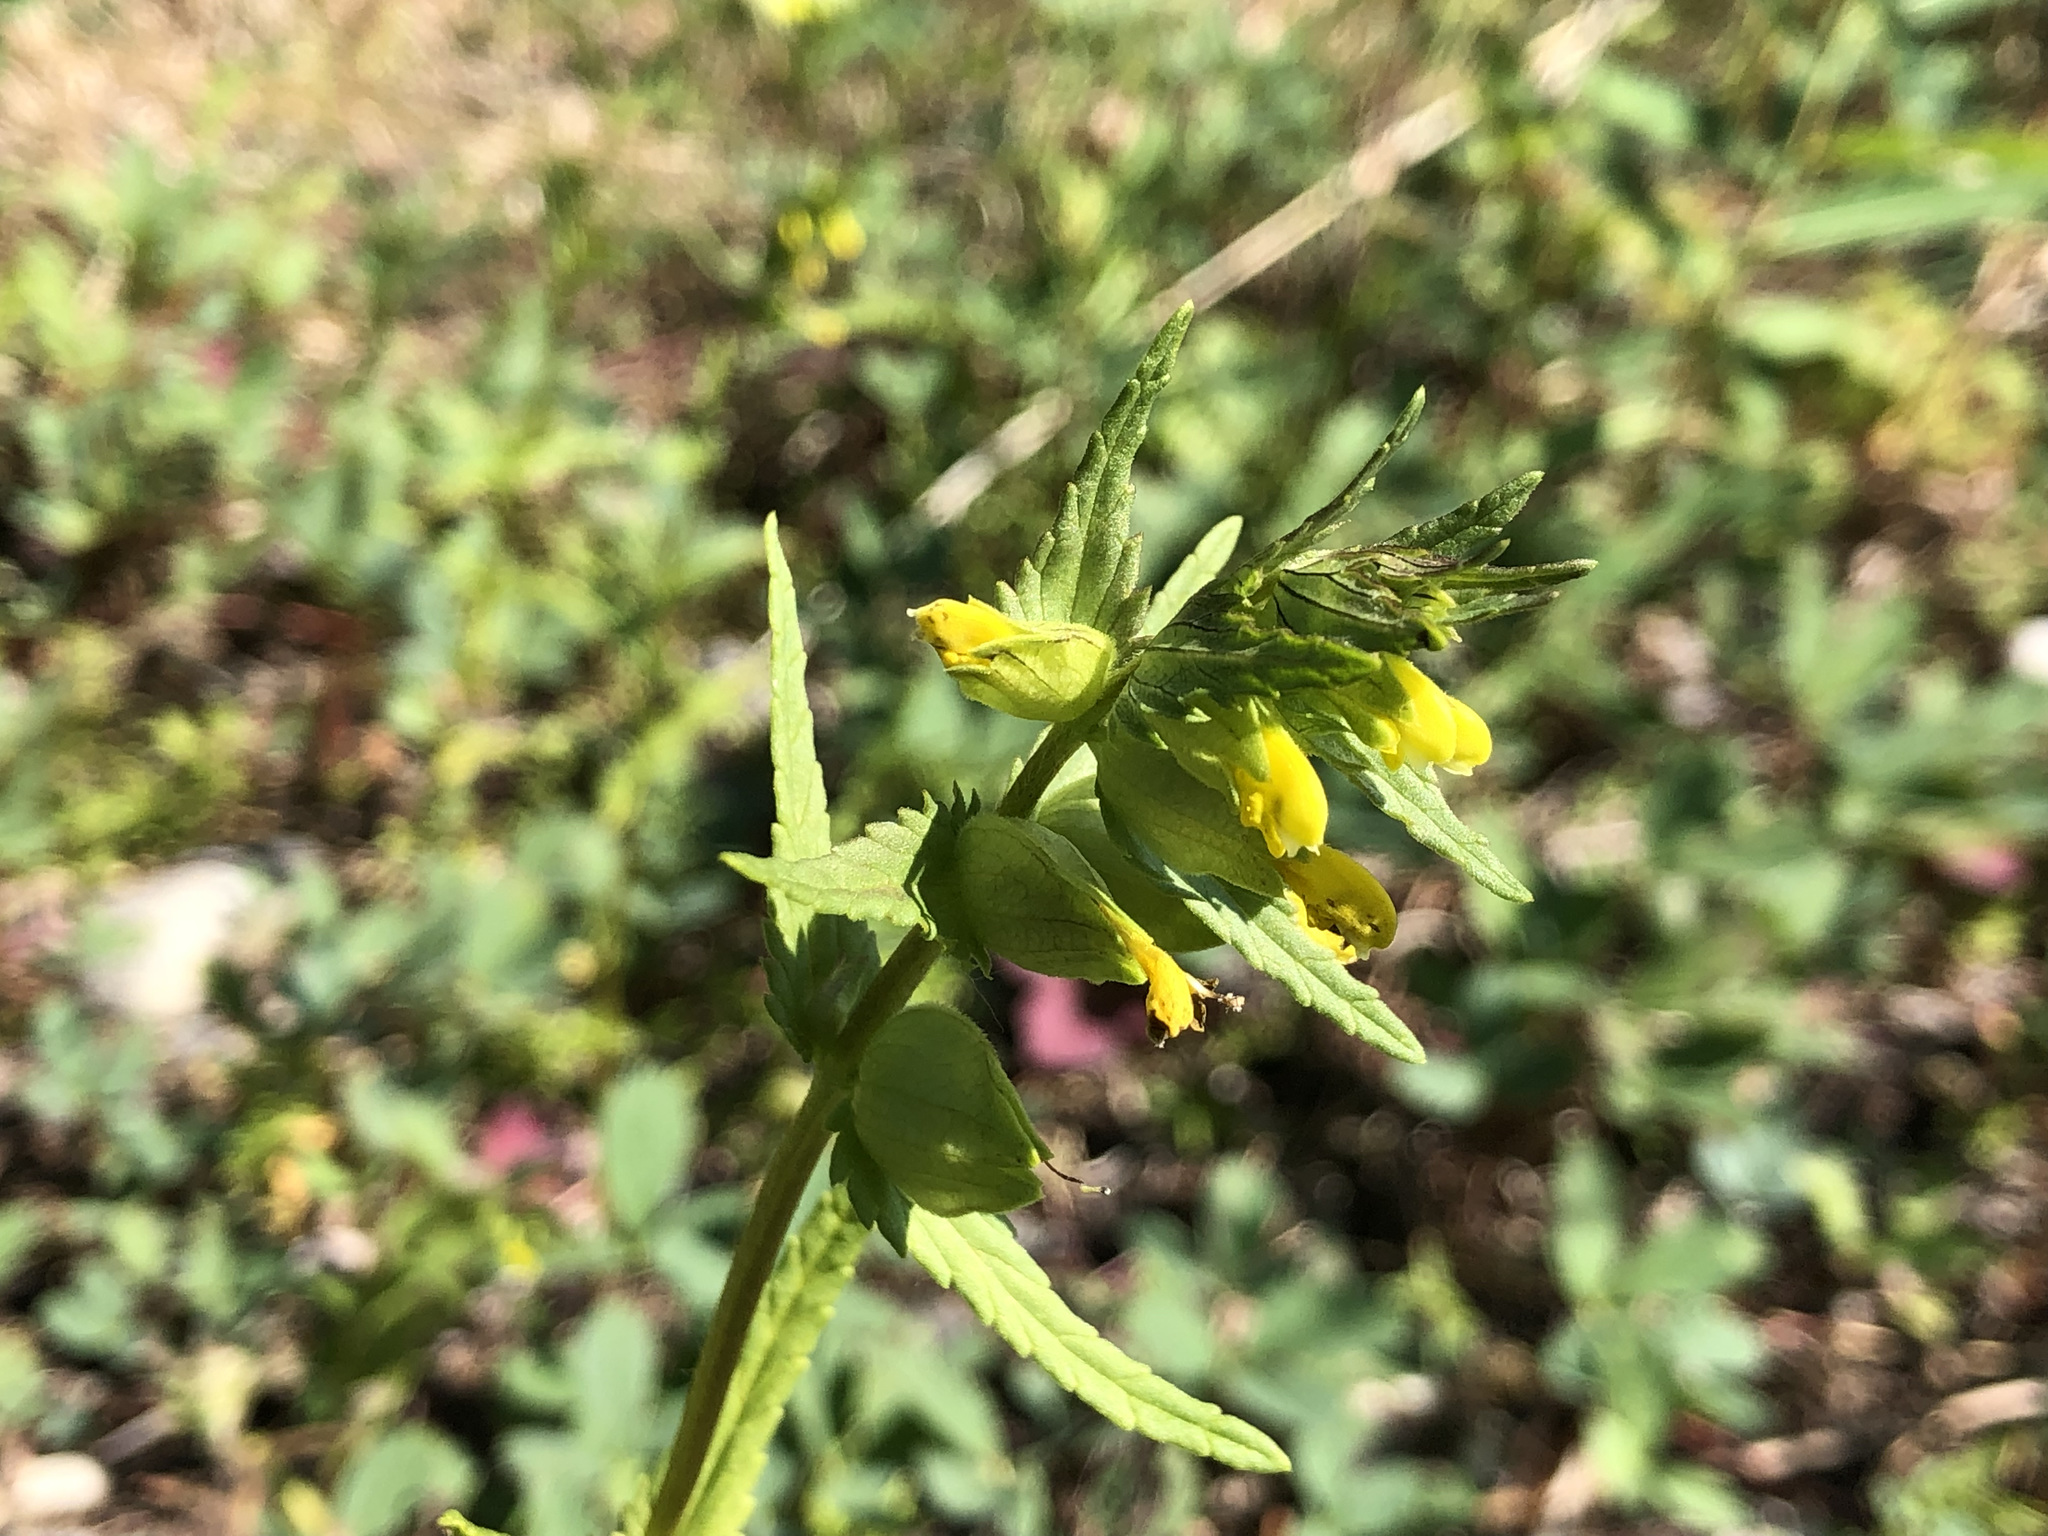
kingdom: Plantae
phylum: Tracheophyta
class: Magnoliopsida
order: Lamiales
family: Orobanchaceae
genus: Rhinanthus
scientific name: Rhinanthus minor
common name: Yellow-rattle
